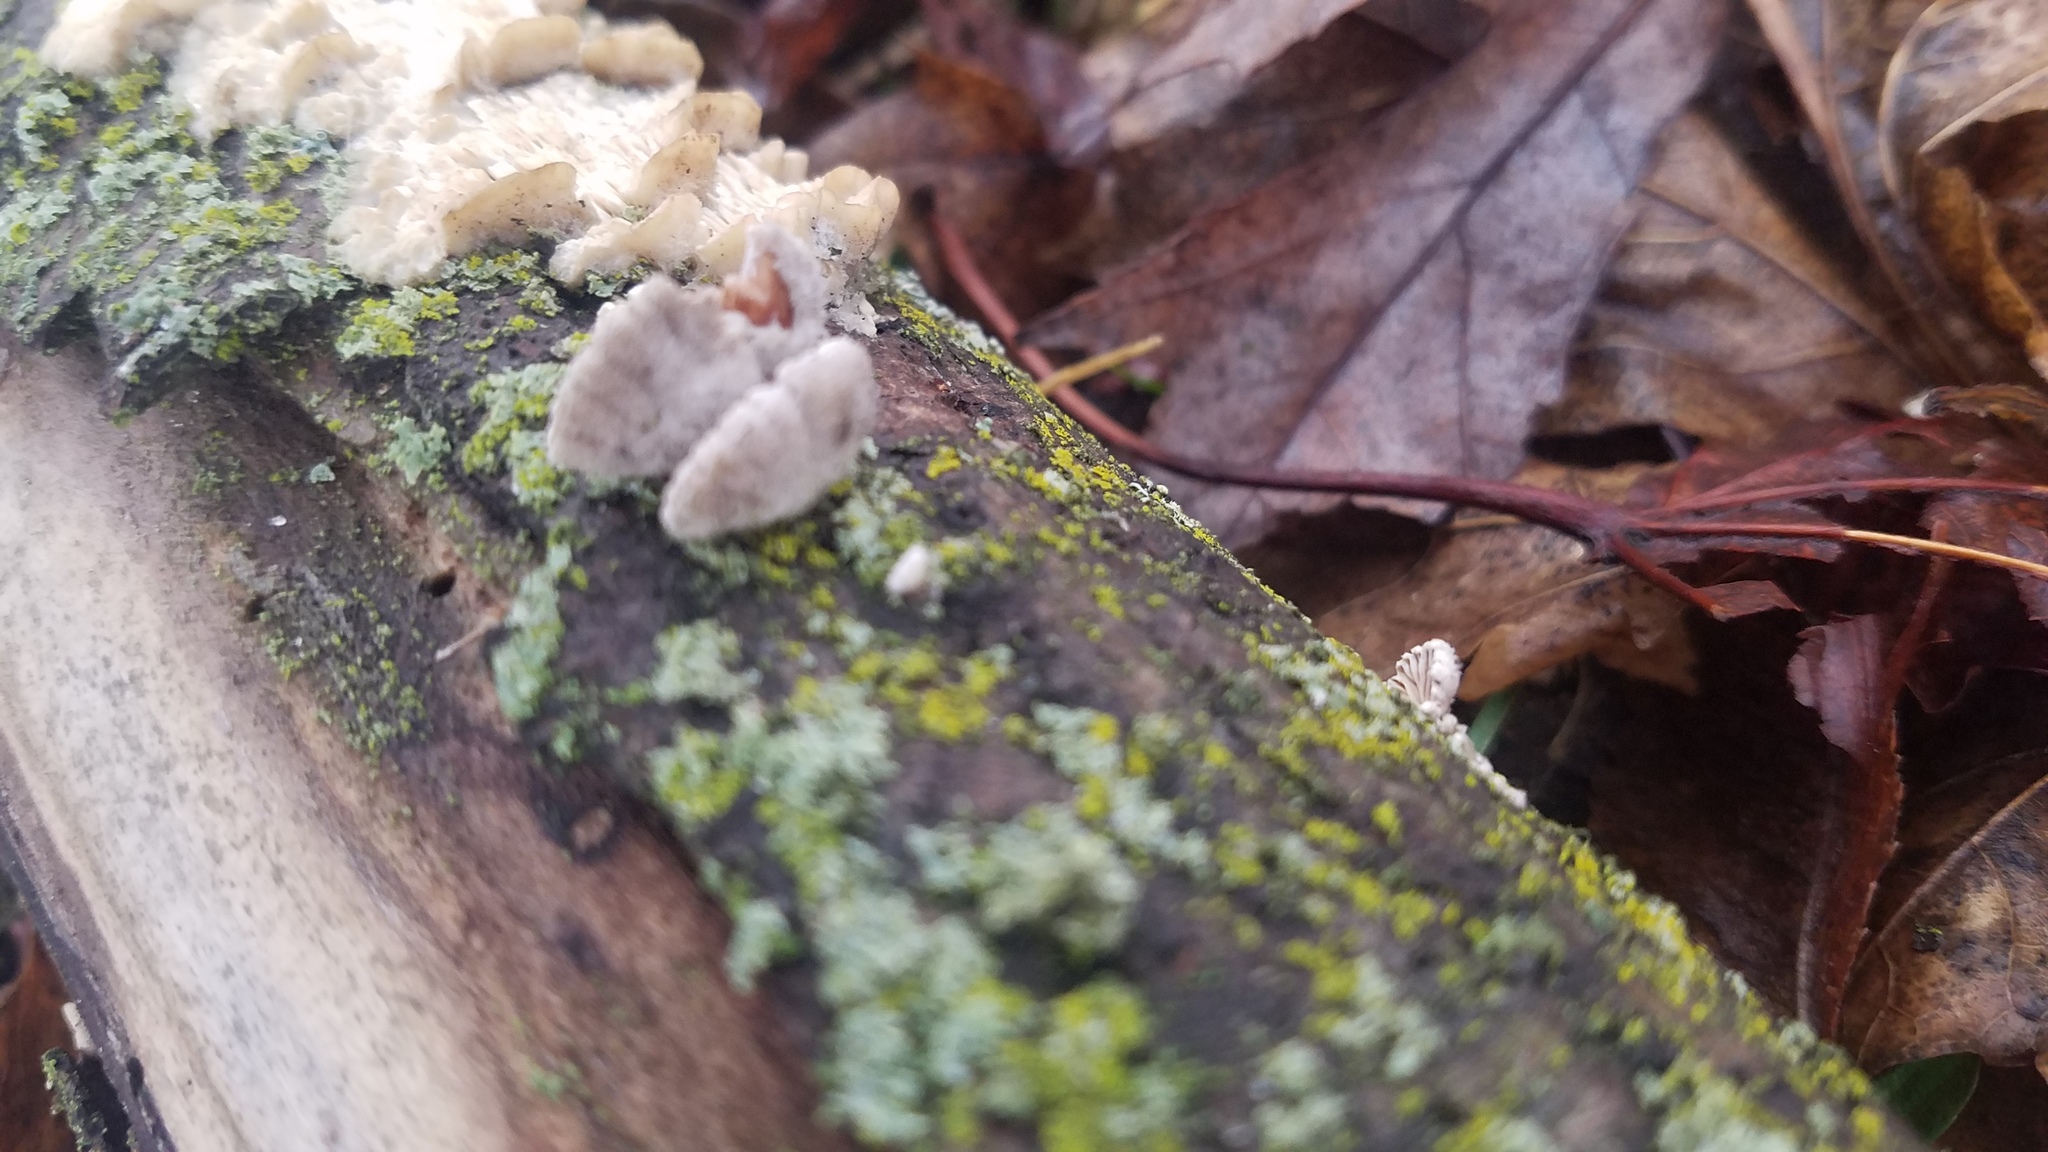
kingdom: Fungi
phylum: Basidiomycota
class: Agaricomycetes
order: Agaricales
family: Schizophyllaceae
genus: Schizophyllum
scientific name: Schizophyllum commune
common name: Common porecrust
